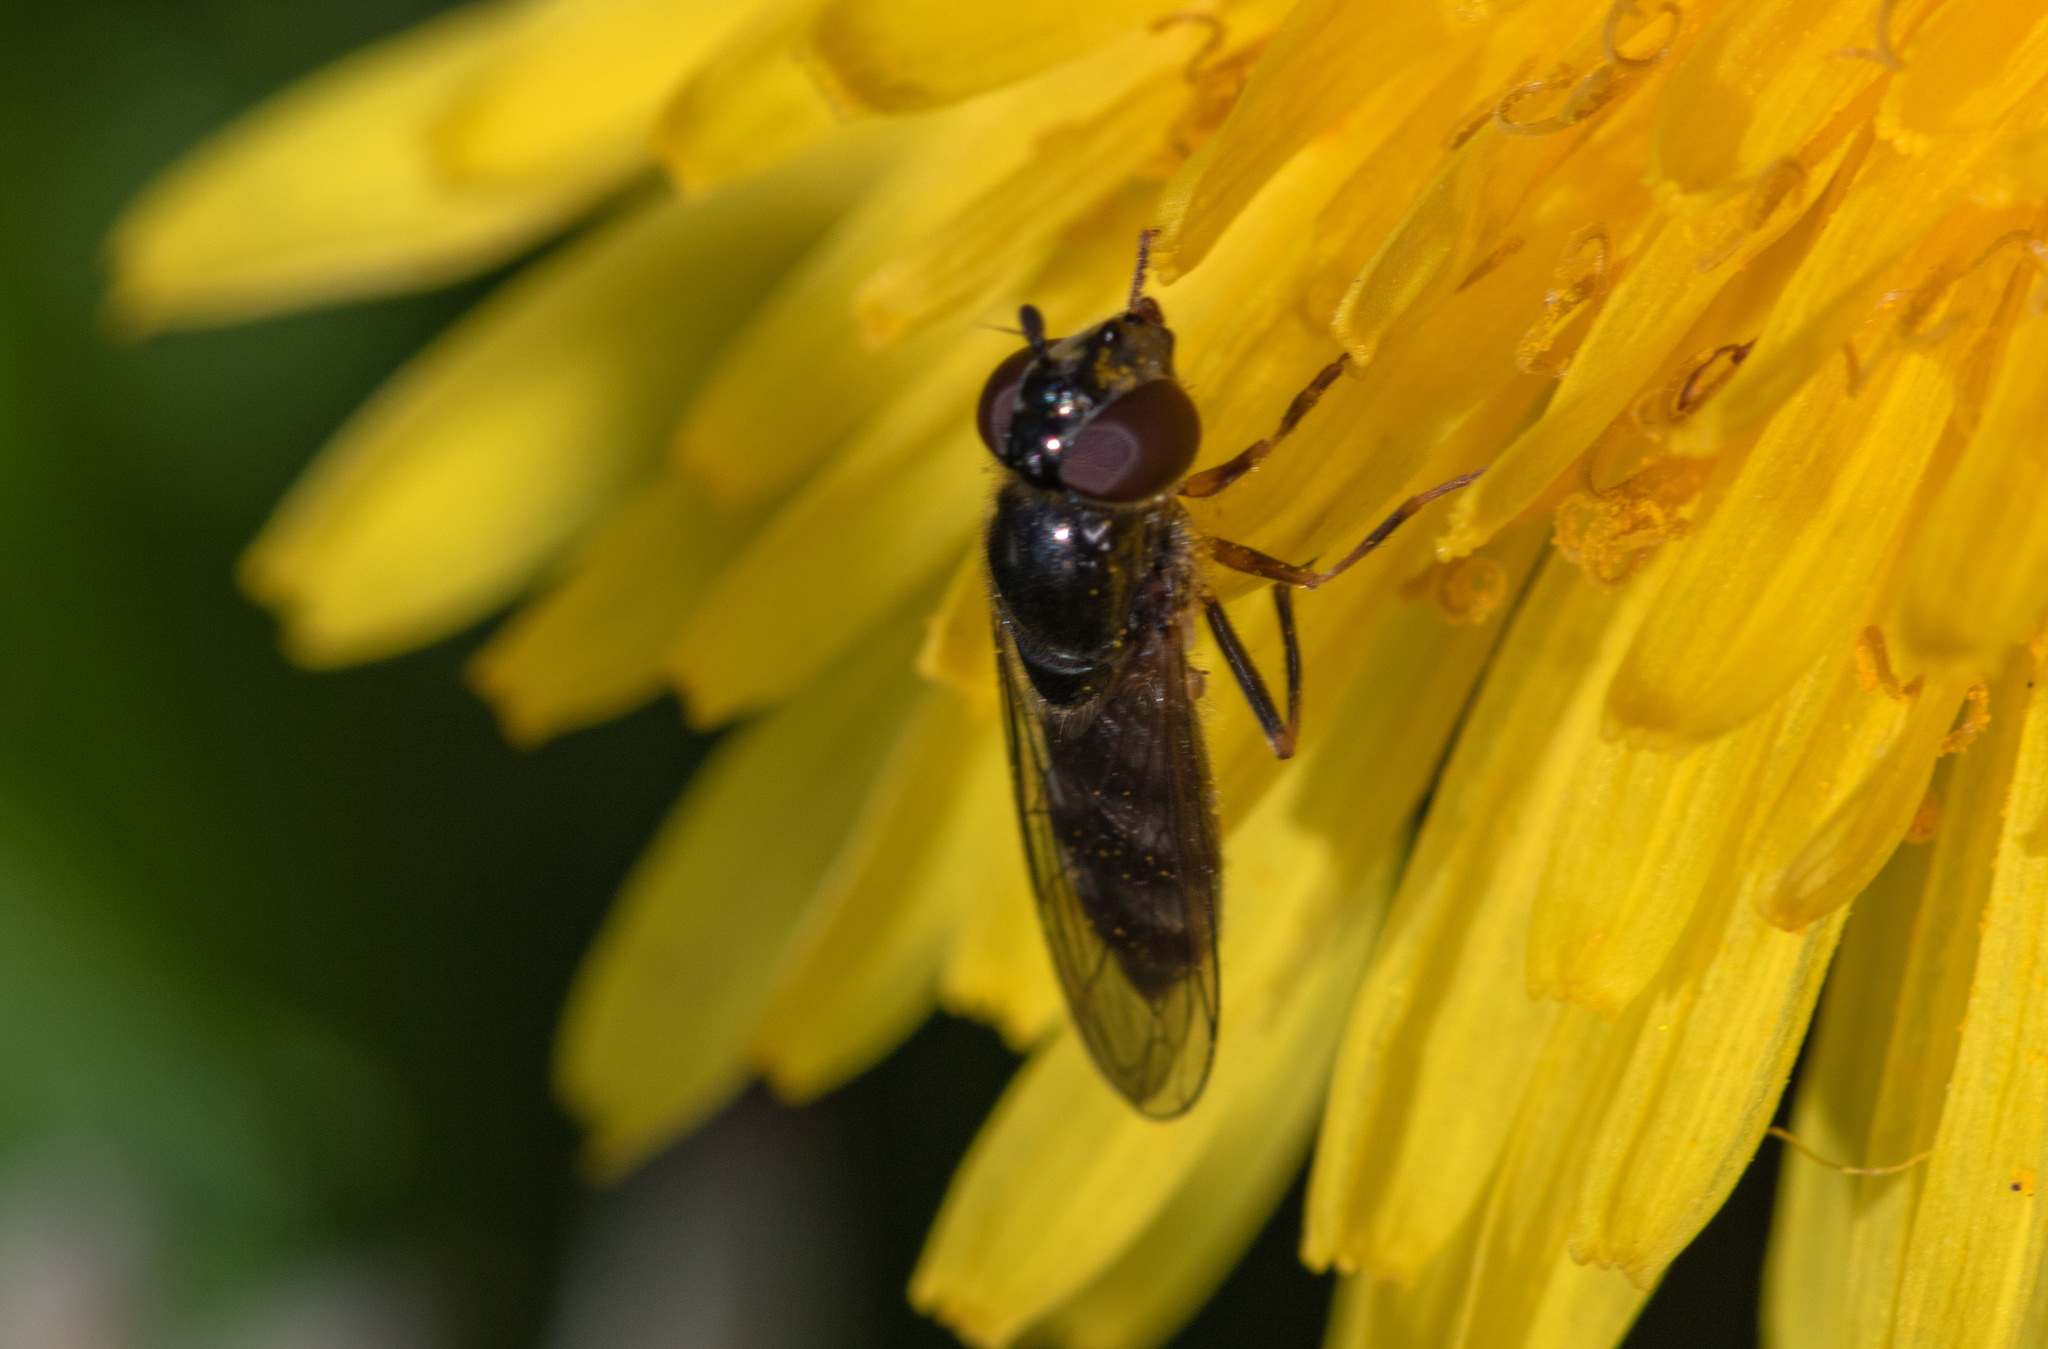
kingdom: Animalia
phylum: Arthropoda
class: Insecta
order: Diptera
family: Syrphidae
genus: Platycheirus
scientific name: Platycheirus albimanus
